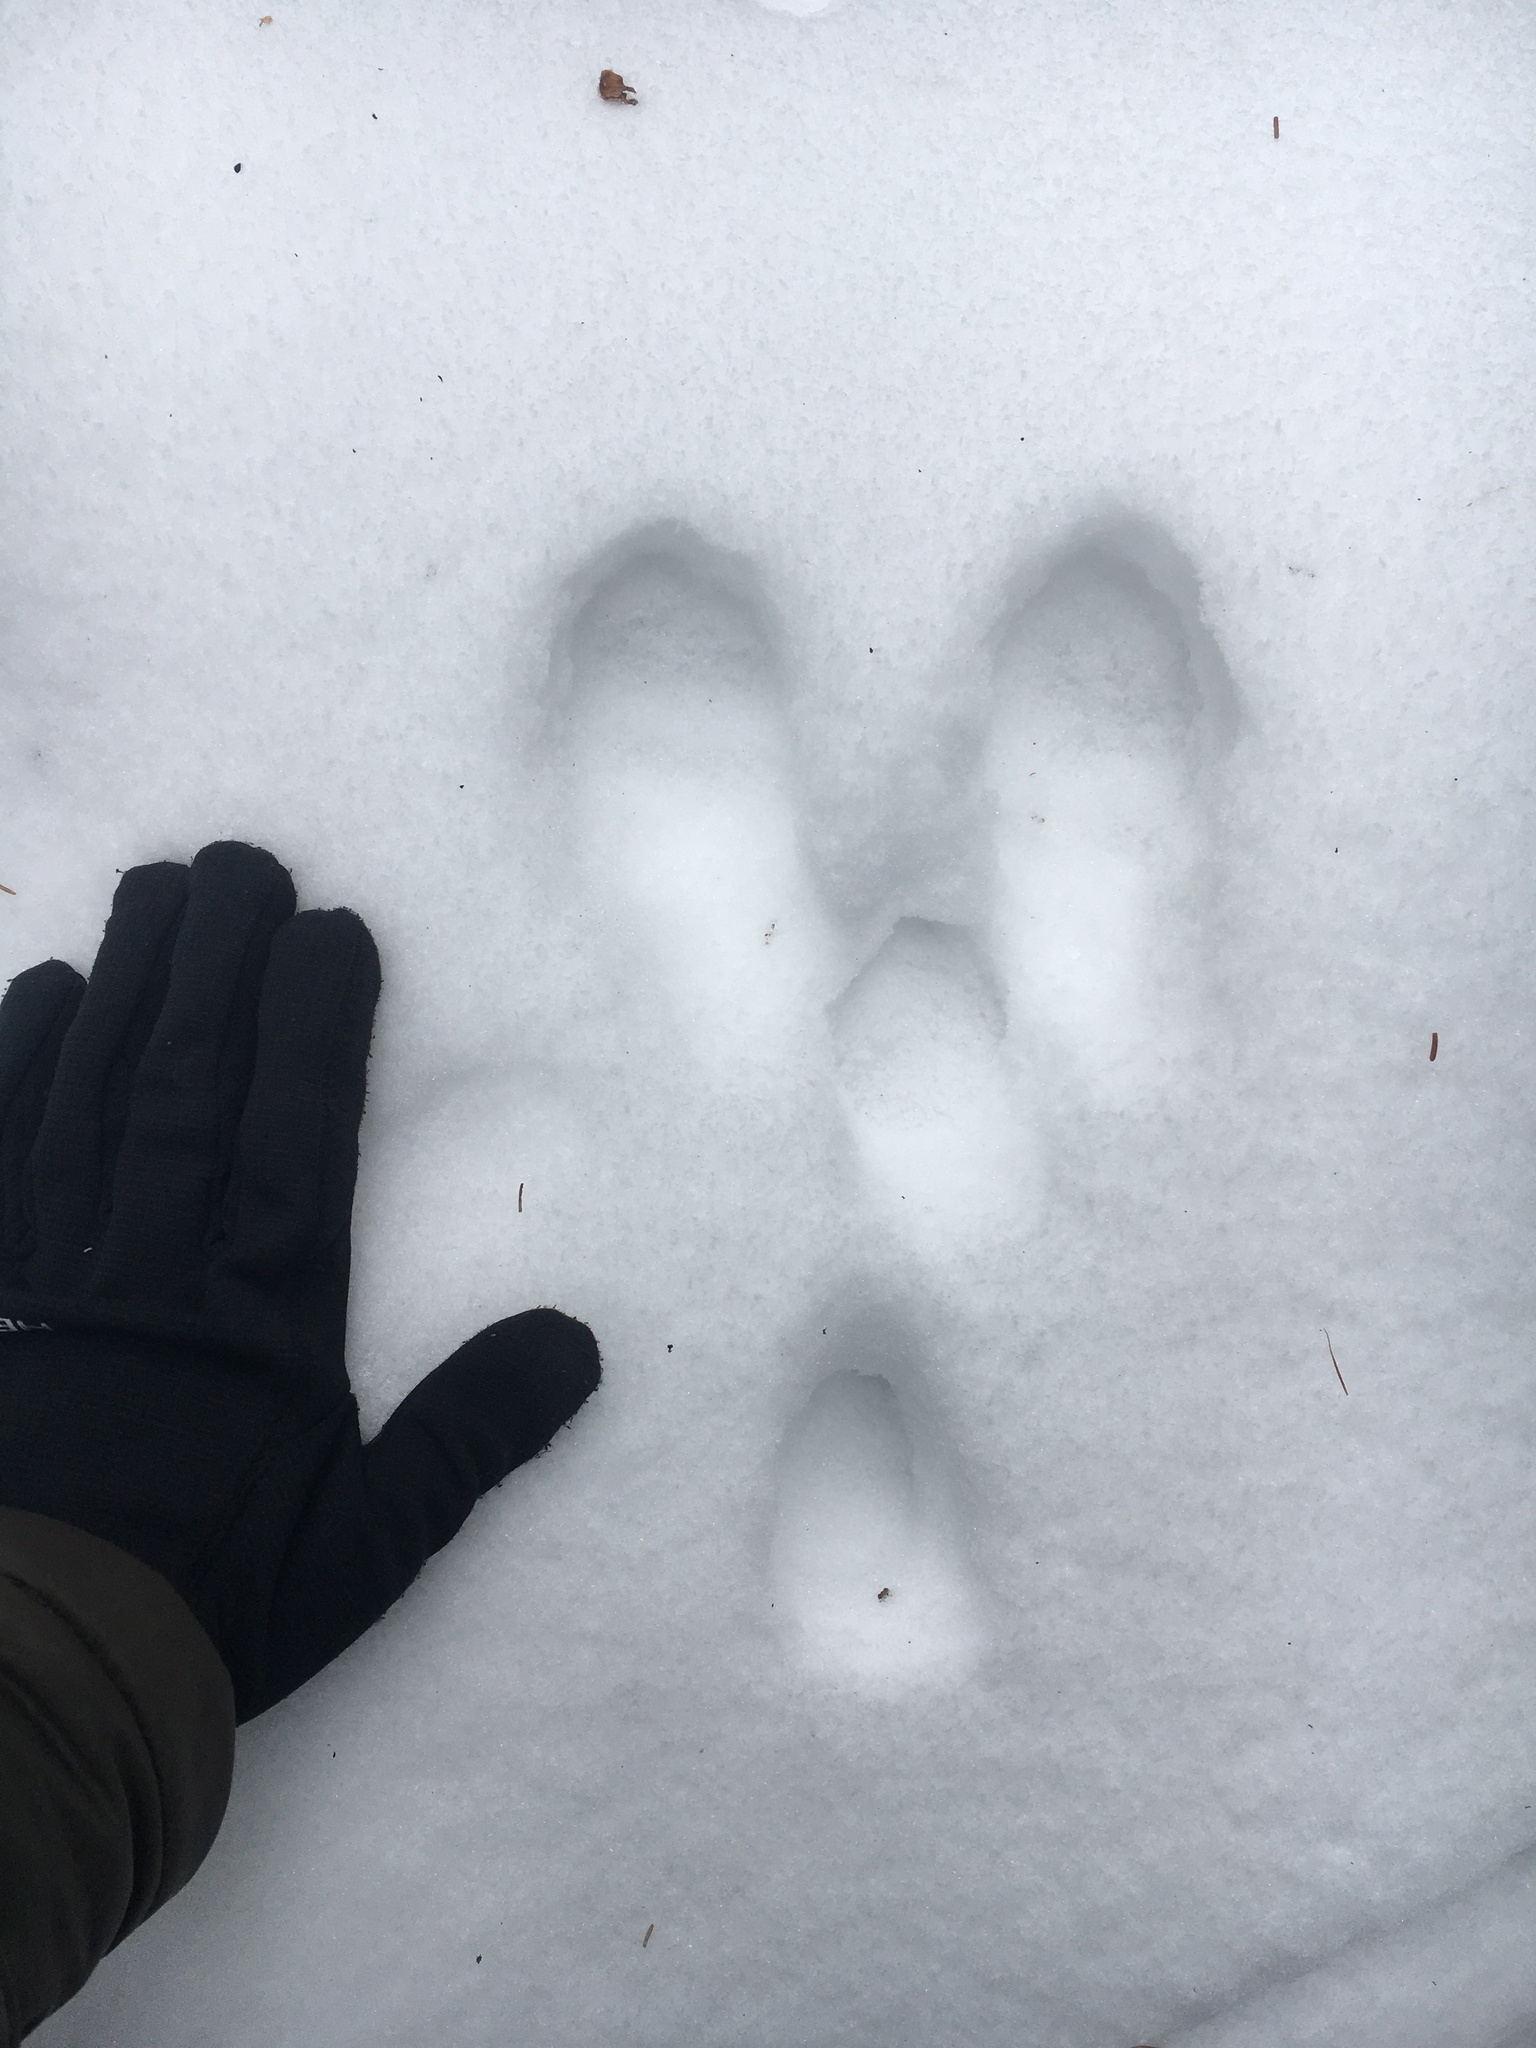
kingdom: Animalia
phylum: Chordata
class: Mammalia
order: Lagomorpha
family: Leporidae
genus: Lepus
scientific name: Lepus americanus
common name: Snowshoe hare
